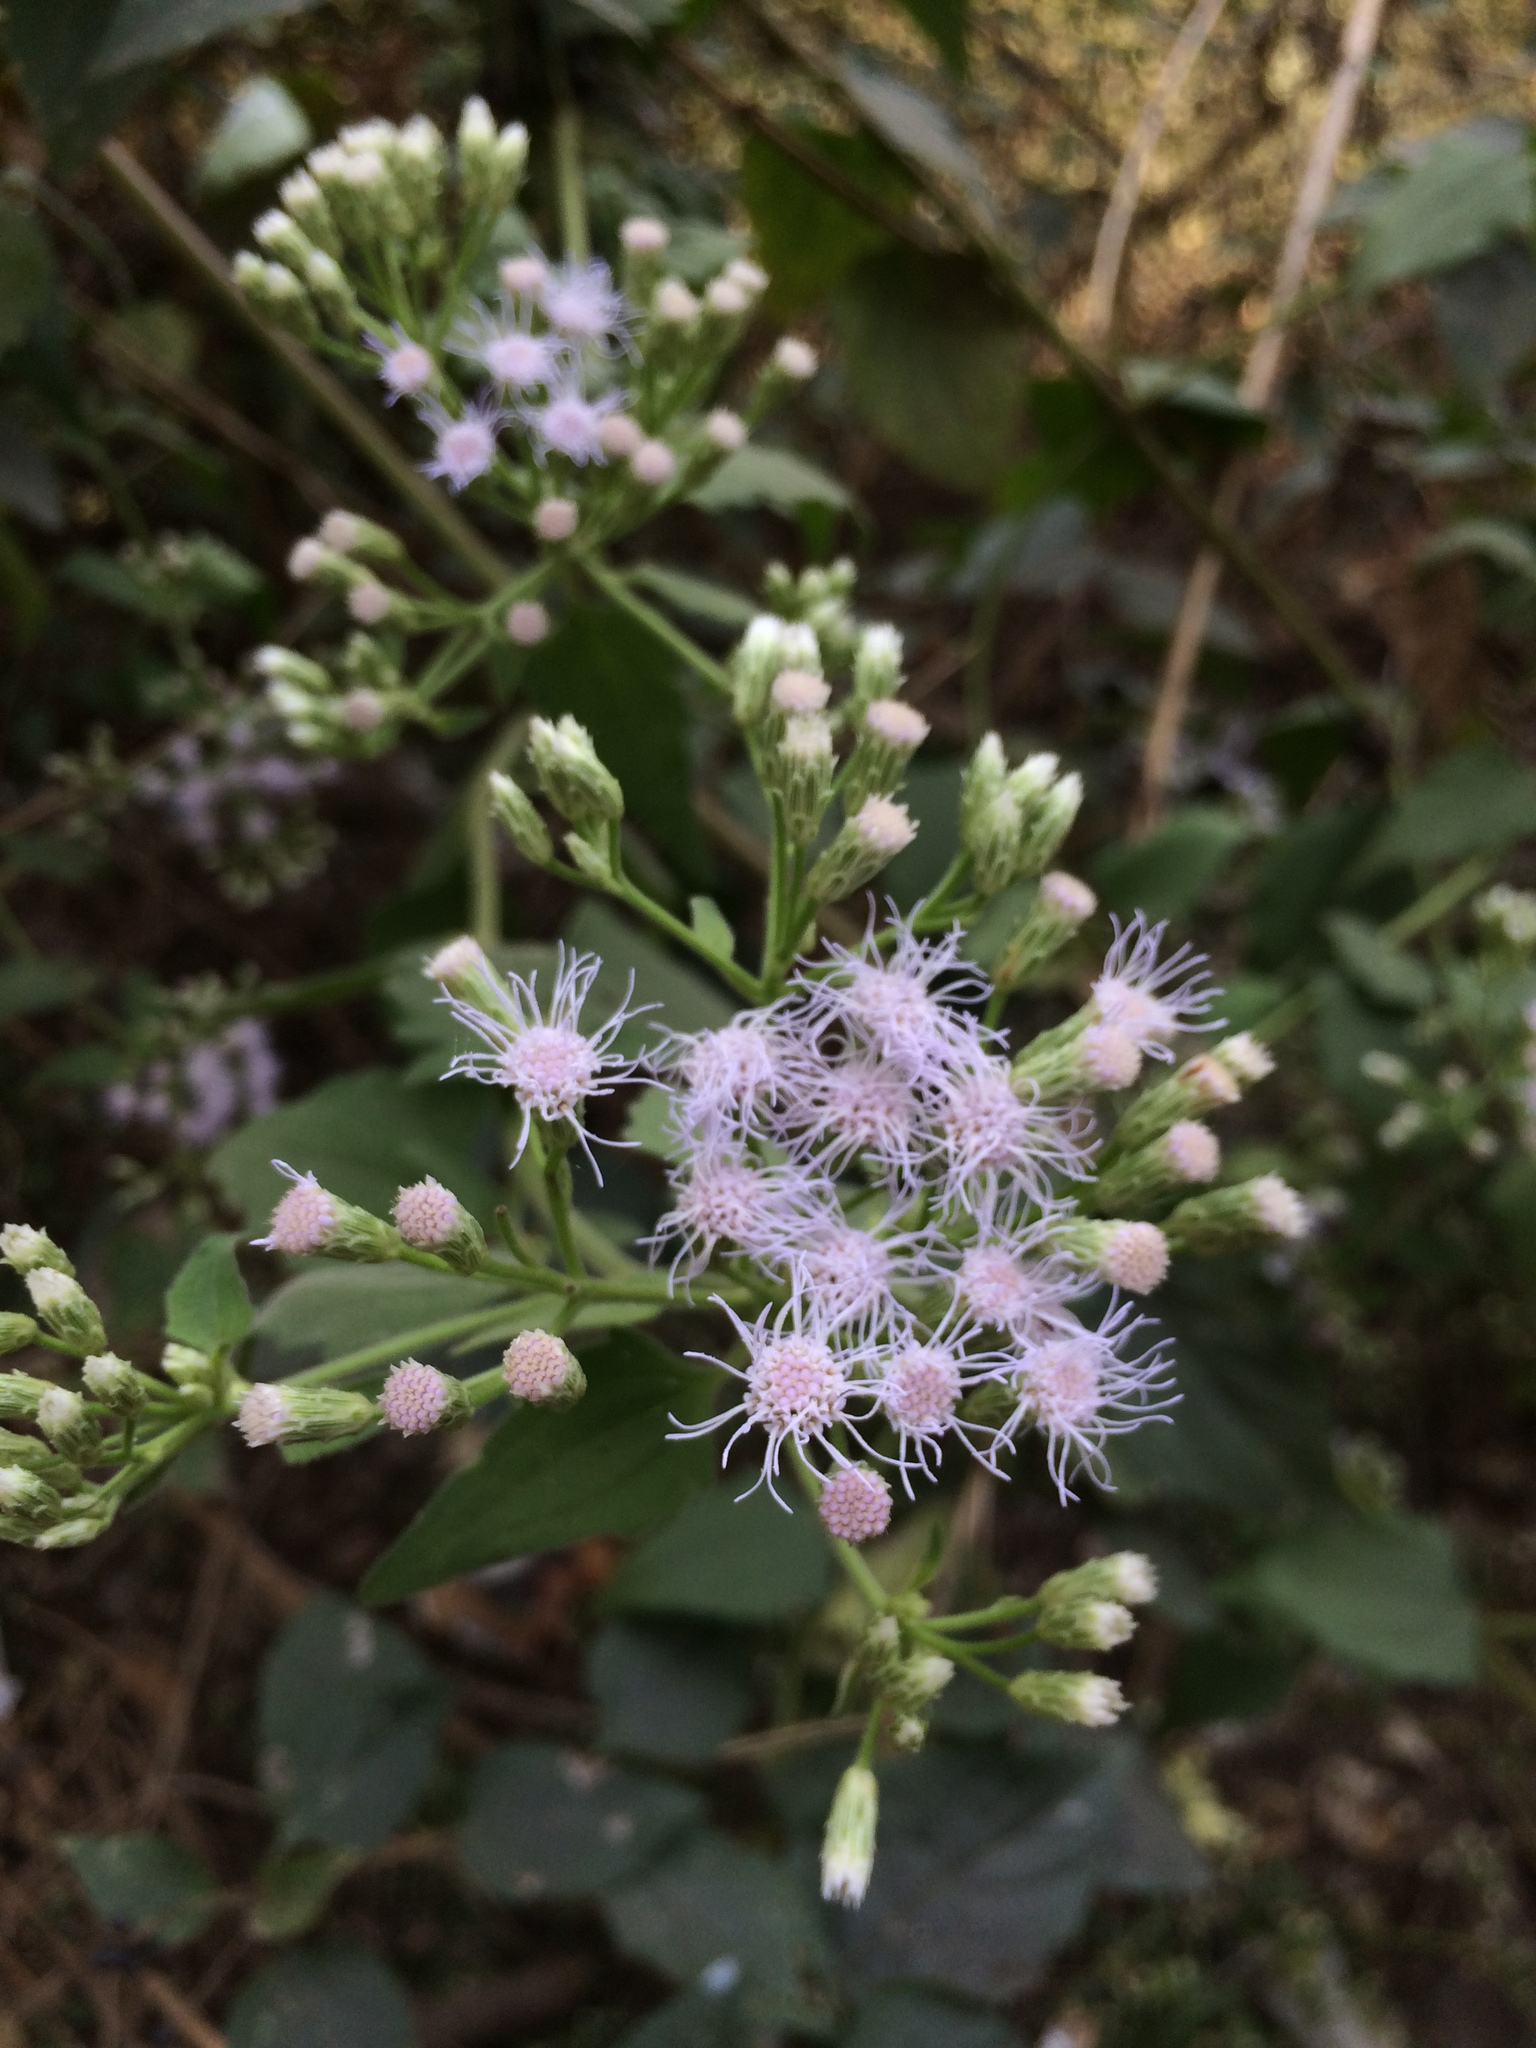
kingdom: Plantae
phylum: Tracheophyta
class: Magnoliopsida
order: Asterales
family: Asteraceae
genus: Chromolaena
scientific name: Chromolaena odorata
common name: Siamweed
